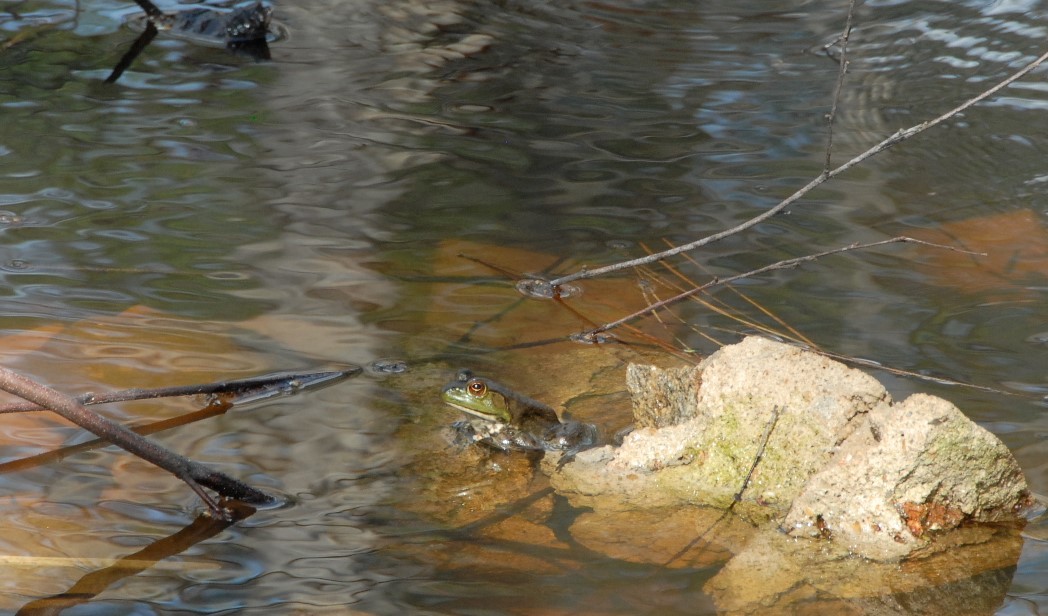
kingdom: Animalia
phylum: Chordata
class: Amphibia
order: Anura
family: Ranidae
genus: Lithobates
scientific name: Lithobates catesbeianus
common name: American bullfrog
